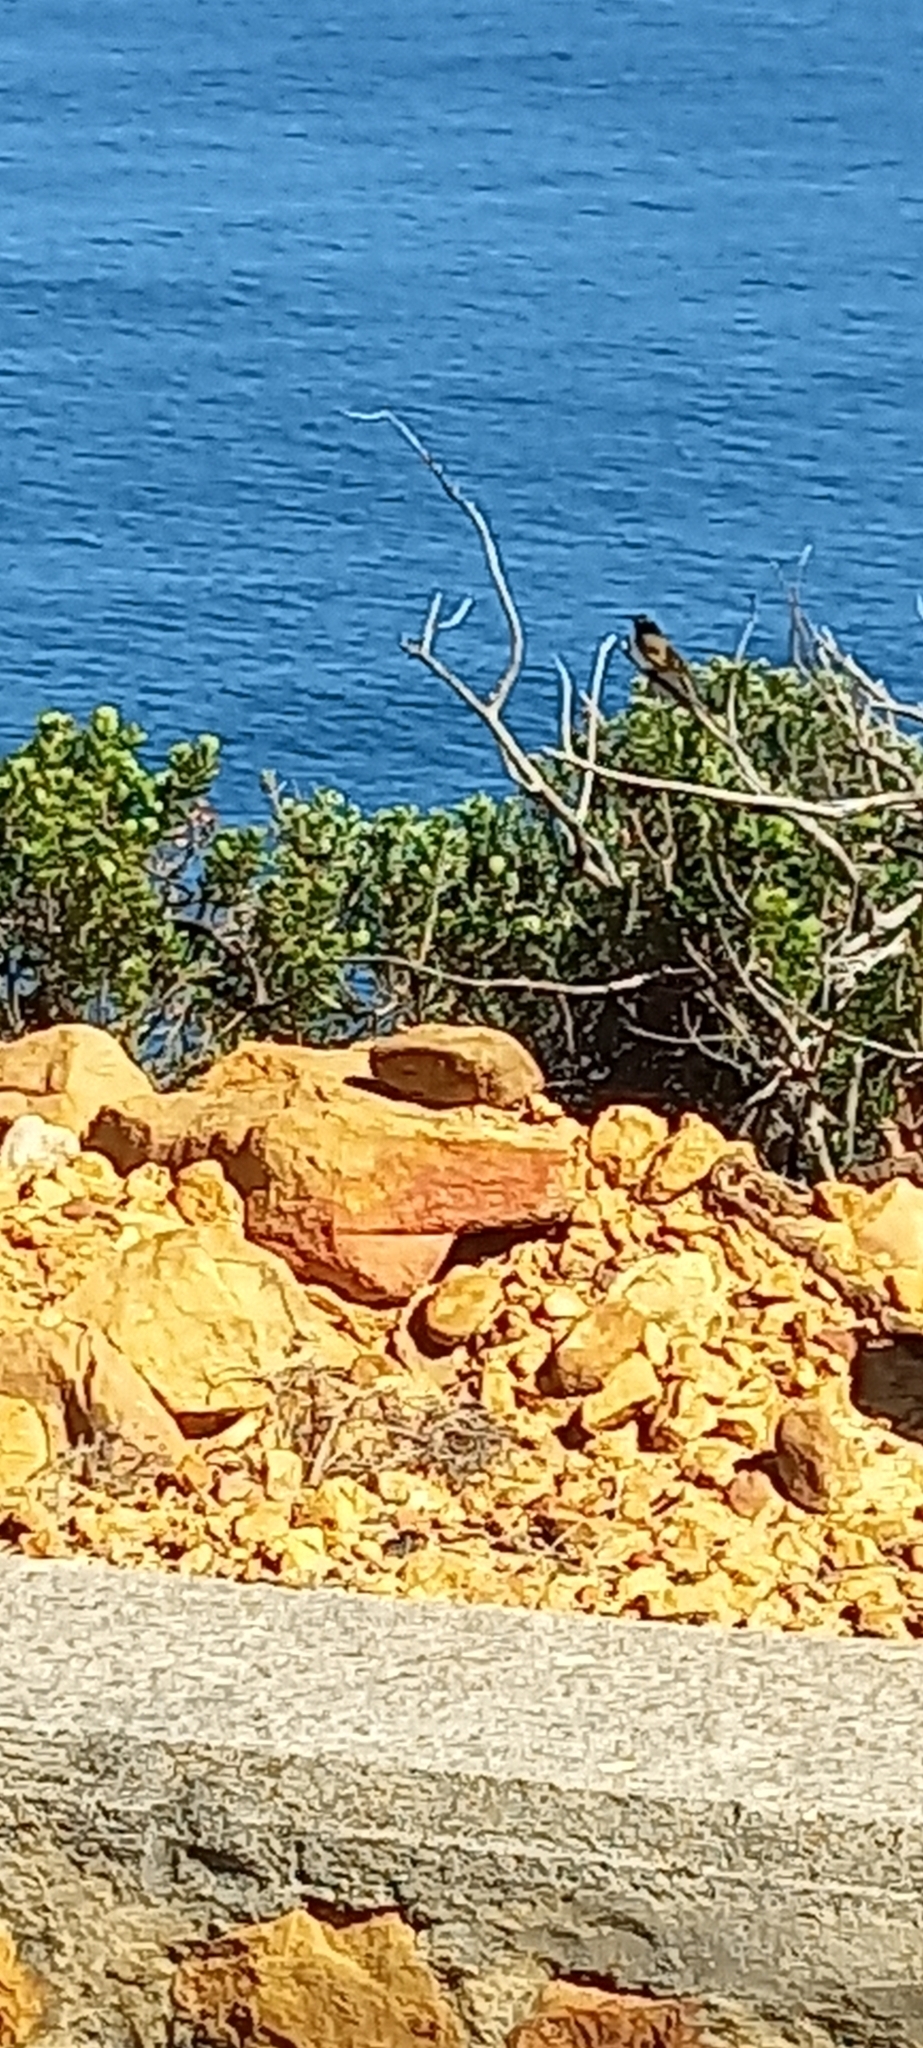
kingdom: Animalia
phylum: Chordata
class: Aves
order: Passeriformes
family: Nectariniidae
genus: Anthobaphes
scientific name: Anthobaphes violacea
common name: Orange-breasted sunbird
